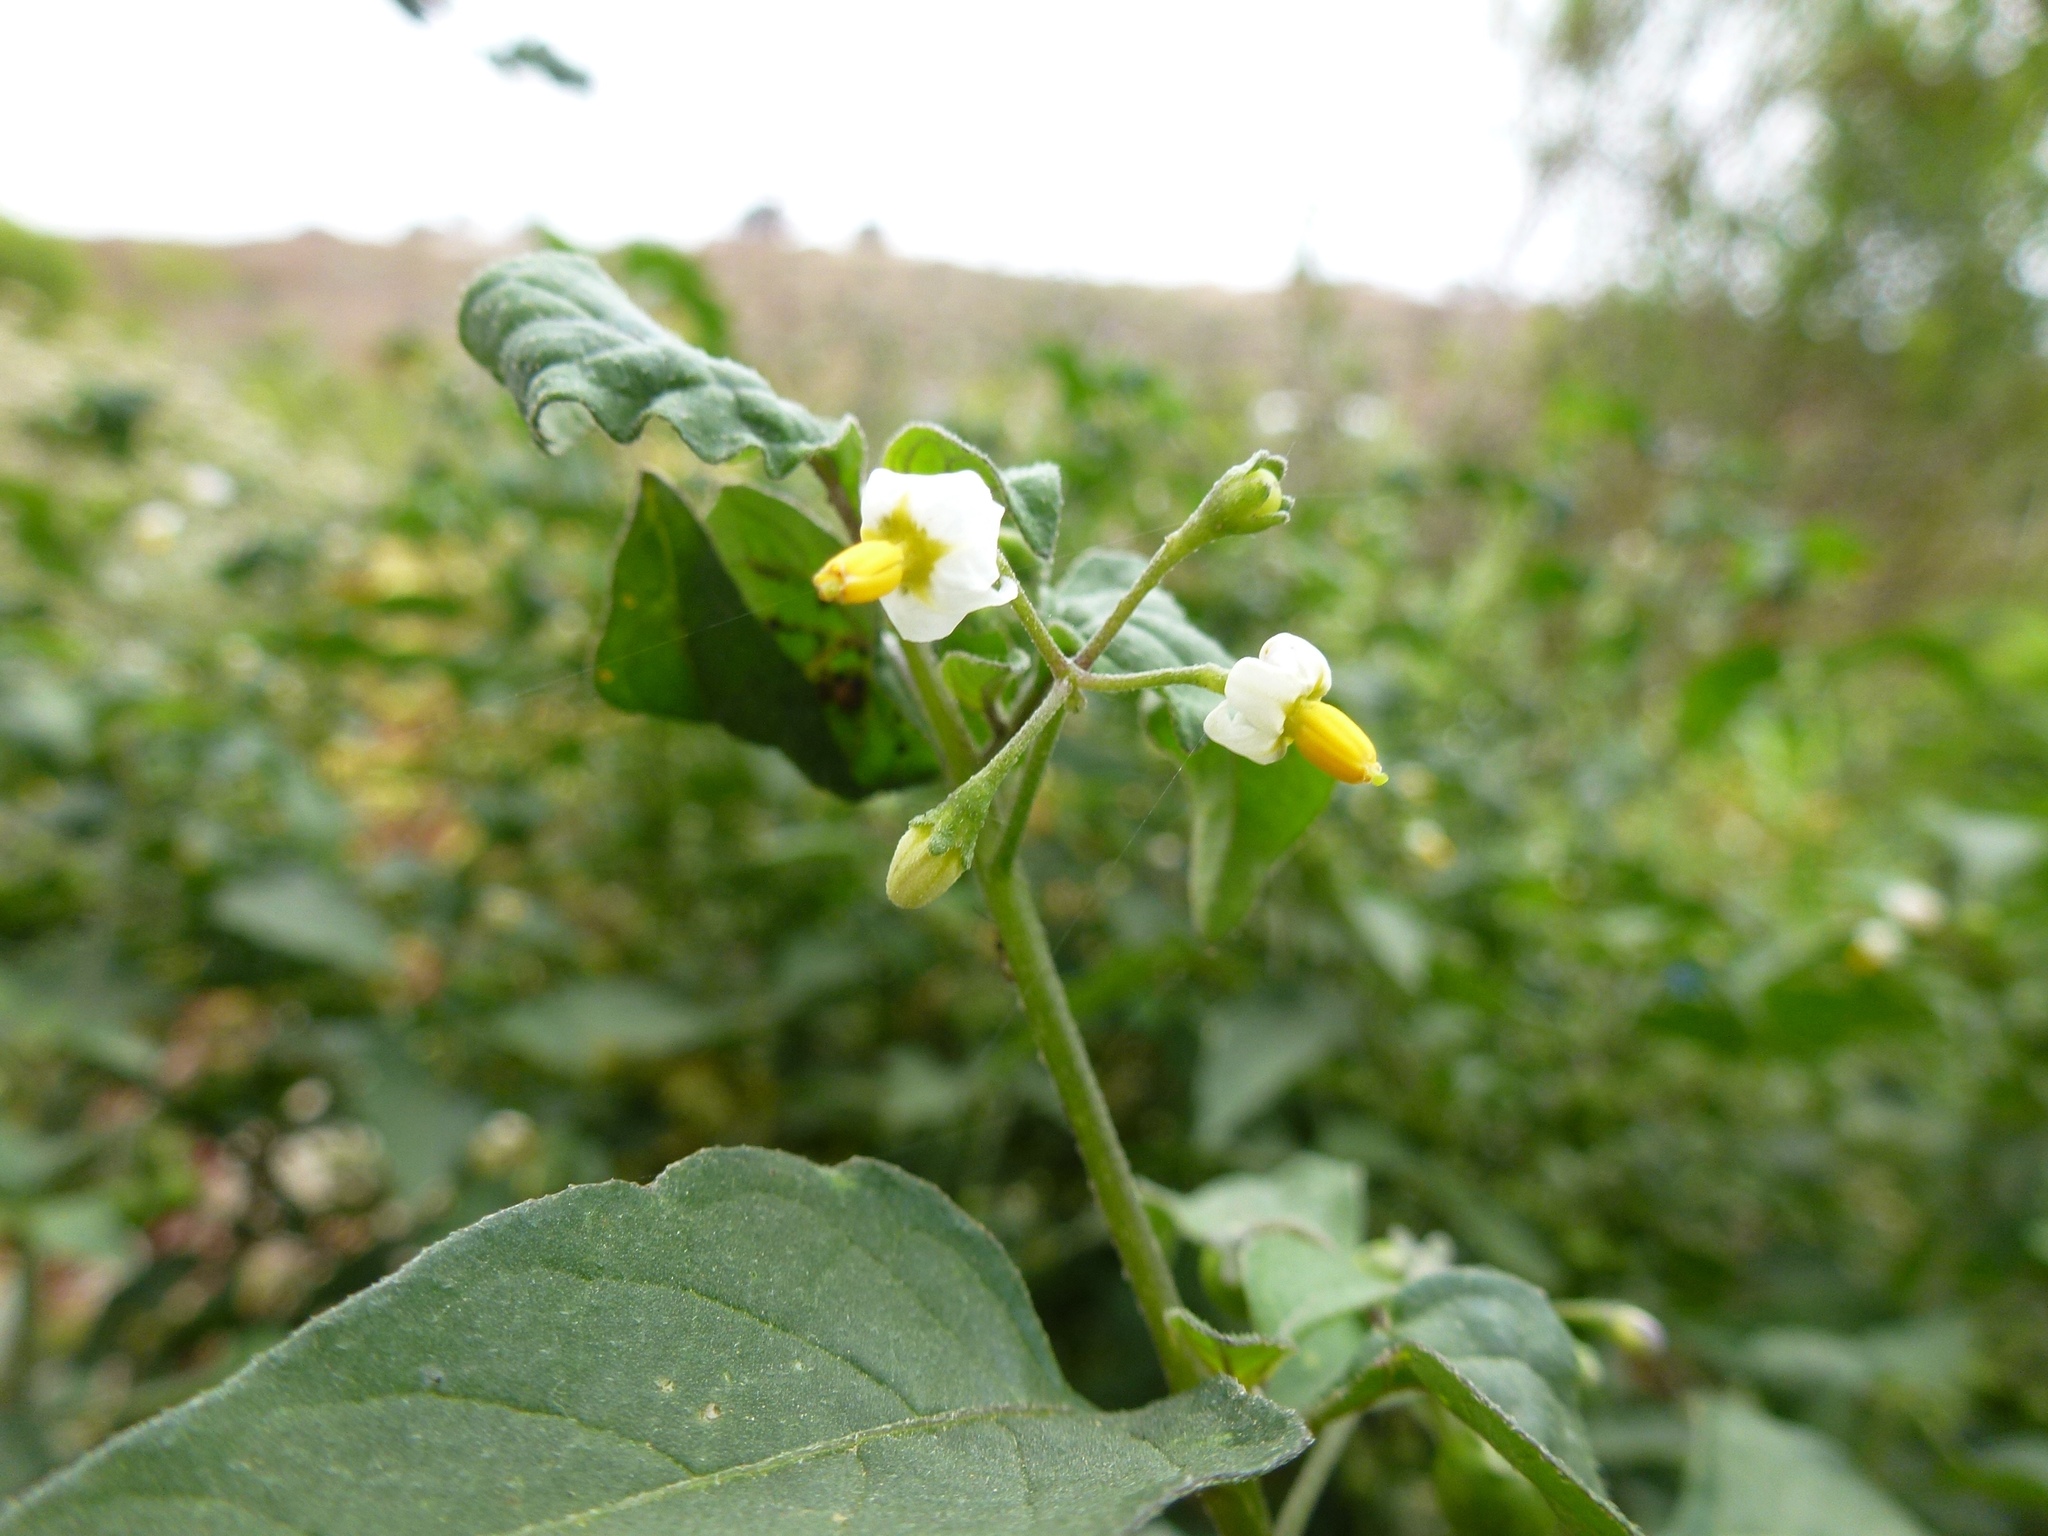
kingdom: Plantae
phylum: Tracheophyta
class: Magnoliopsida
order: Solanales
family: Solanaceae
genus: Solanum
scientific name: Solanum nigrum
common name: Black nightshade
